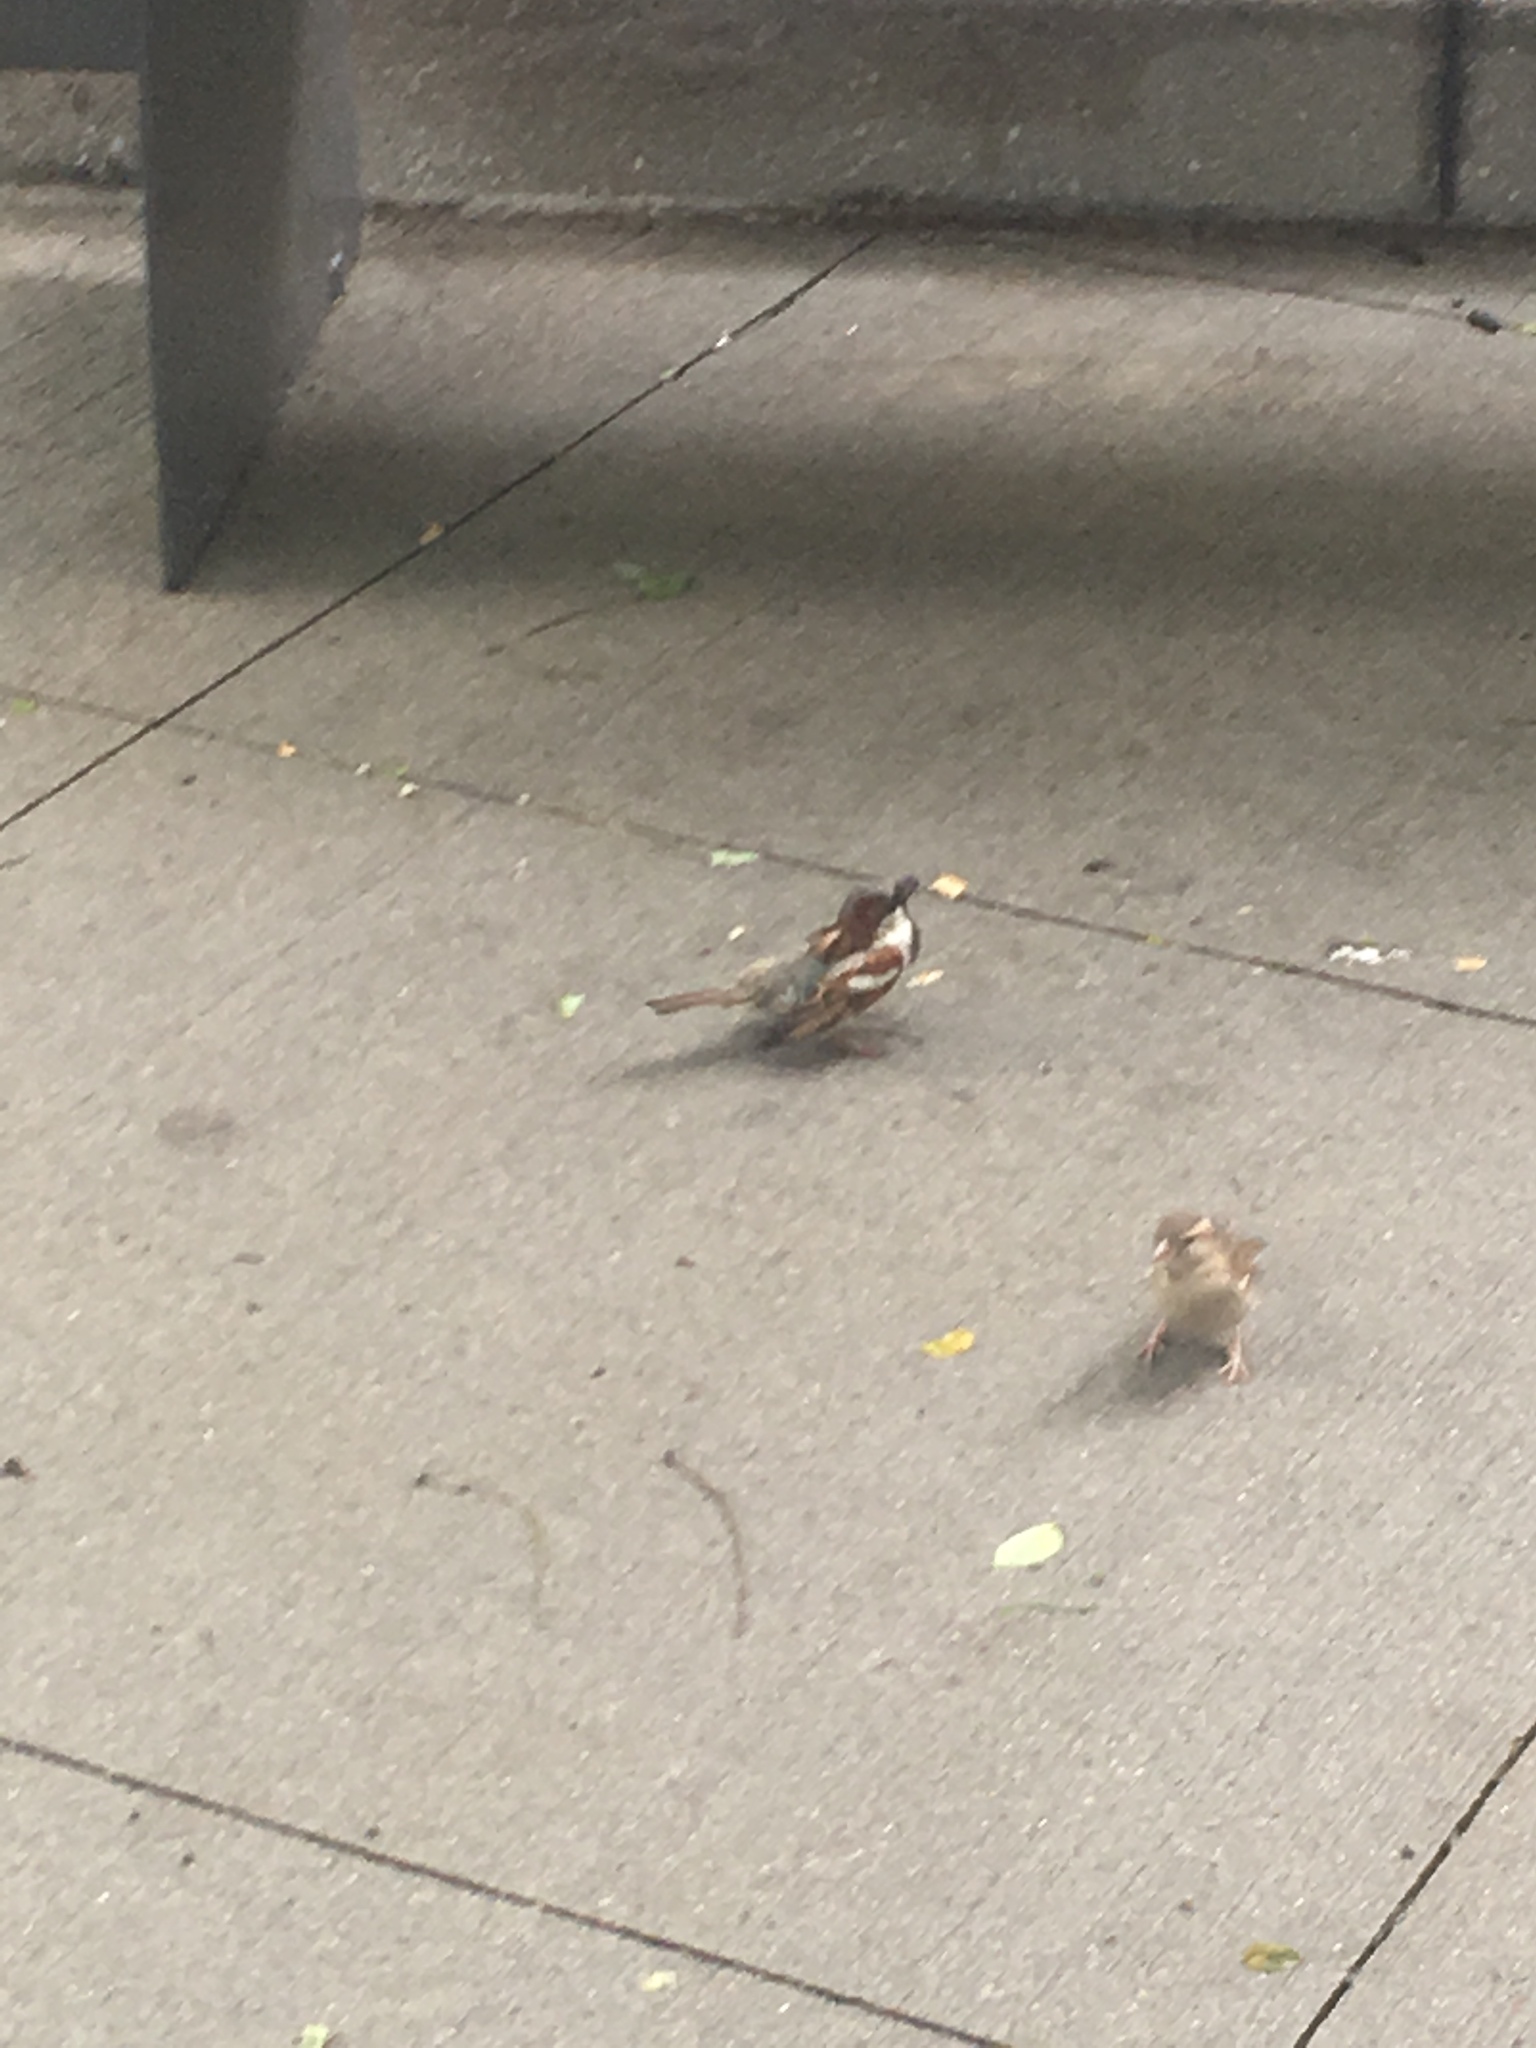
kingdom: Animalia
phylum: Chordata
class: Aves
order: Passeriformes
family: Passeridae
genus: Passer
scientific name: Passer domesticus
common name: House sparrow
